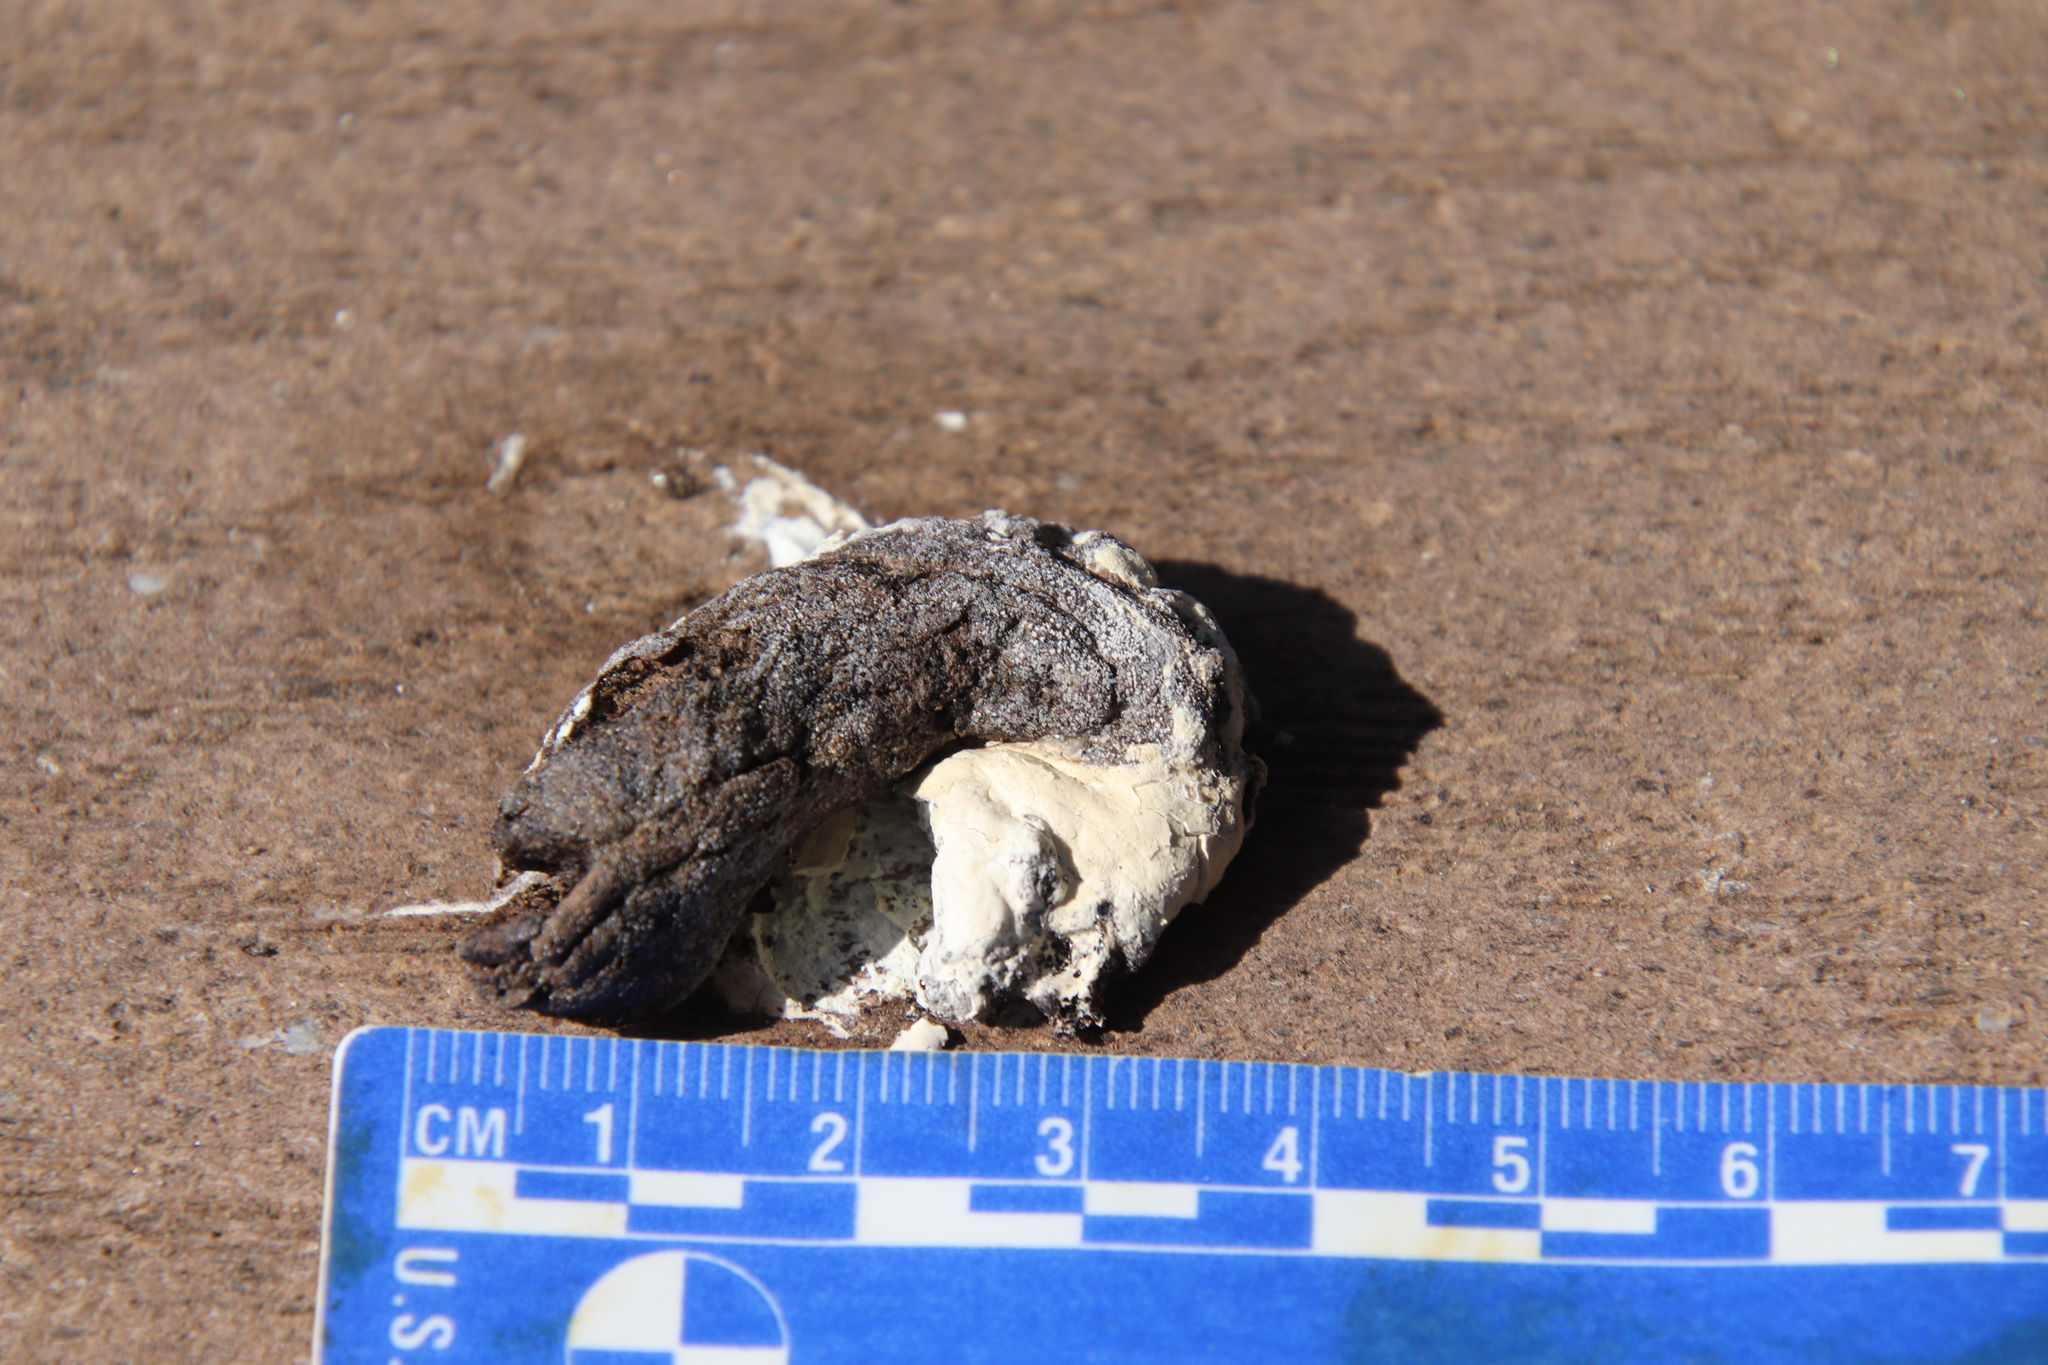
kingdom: Animalia
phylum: Chordata
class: Aves
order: Galliformes
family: Phasianidae
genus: Meleagris
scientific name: Meleagris gallopavo
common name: Wild turkey
